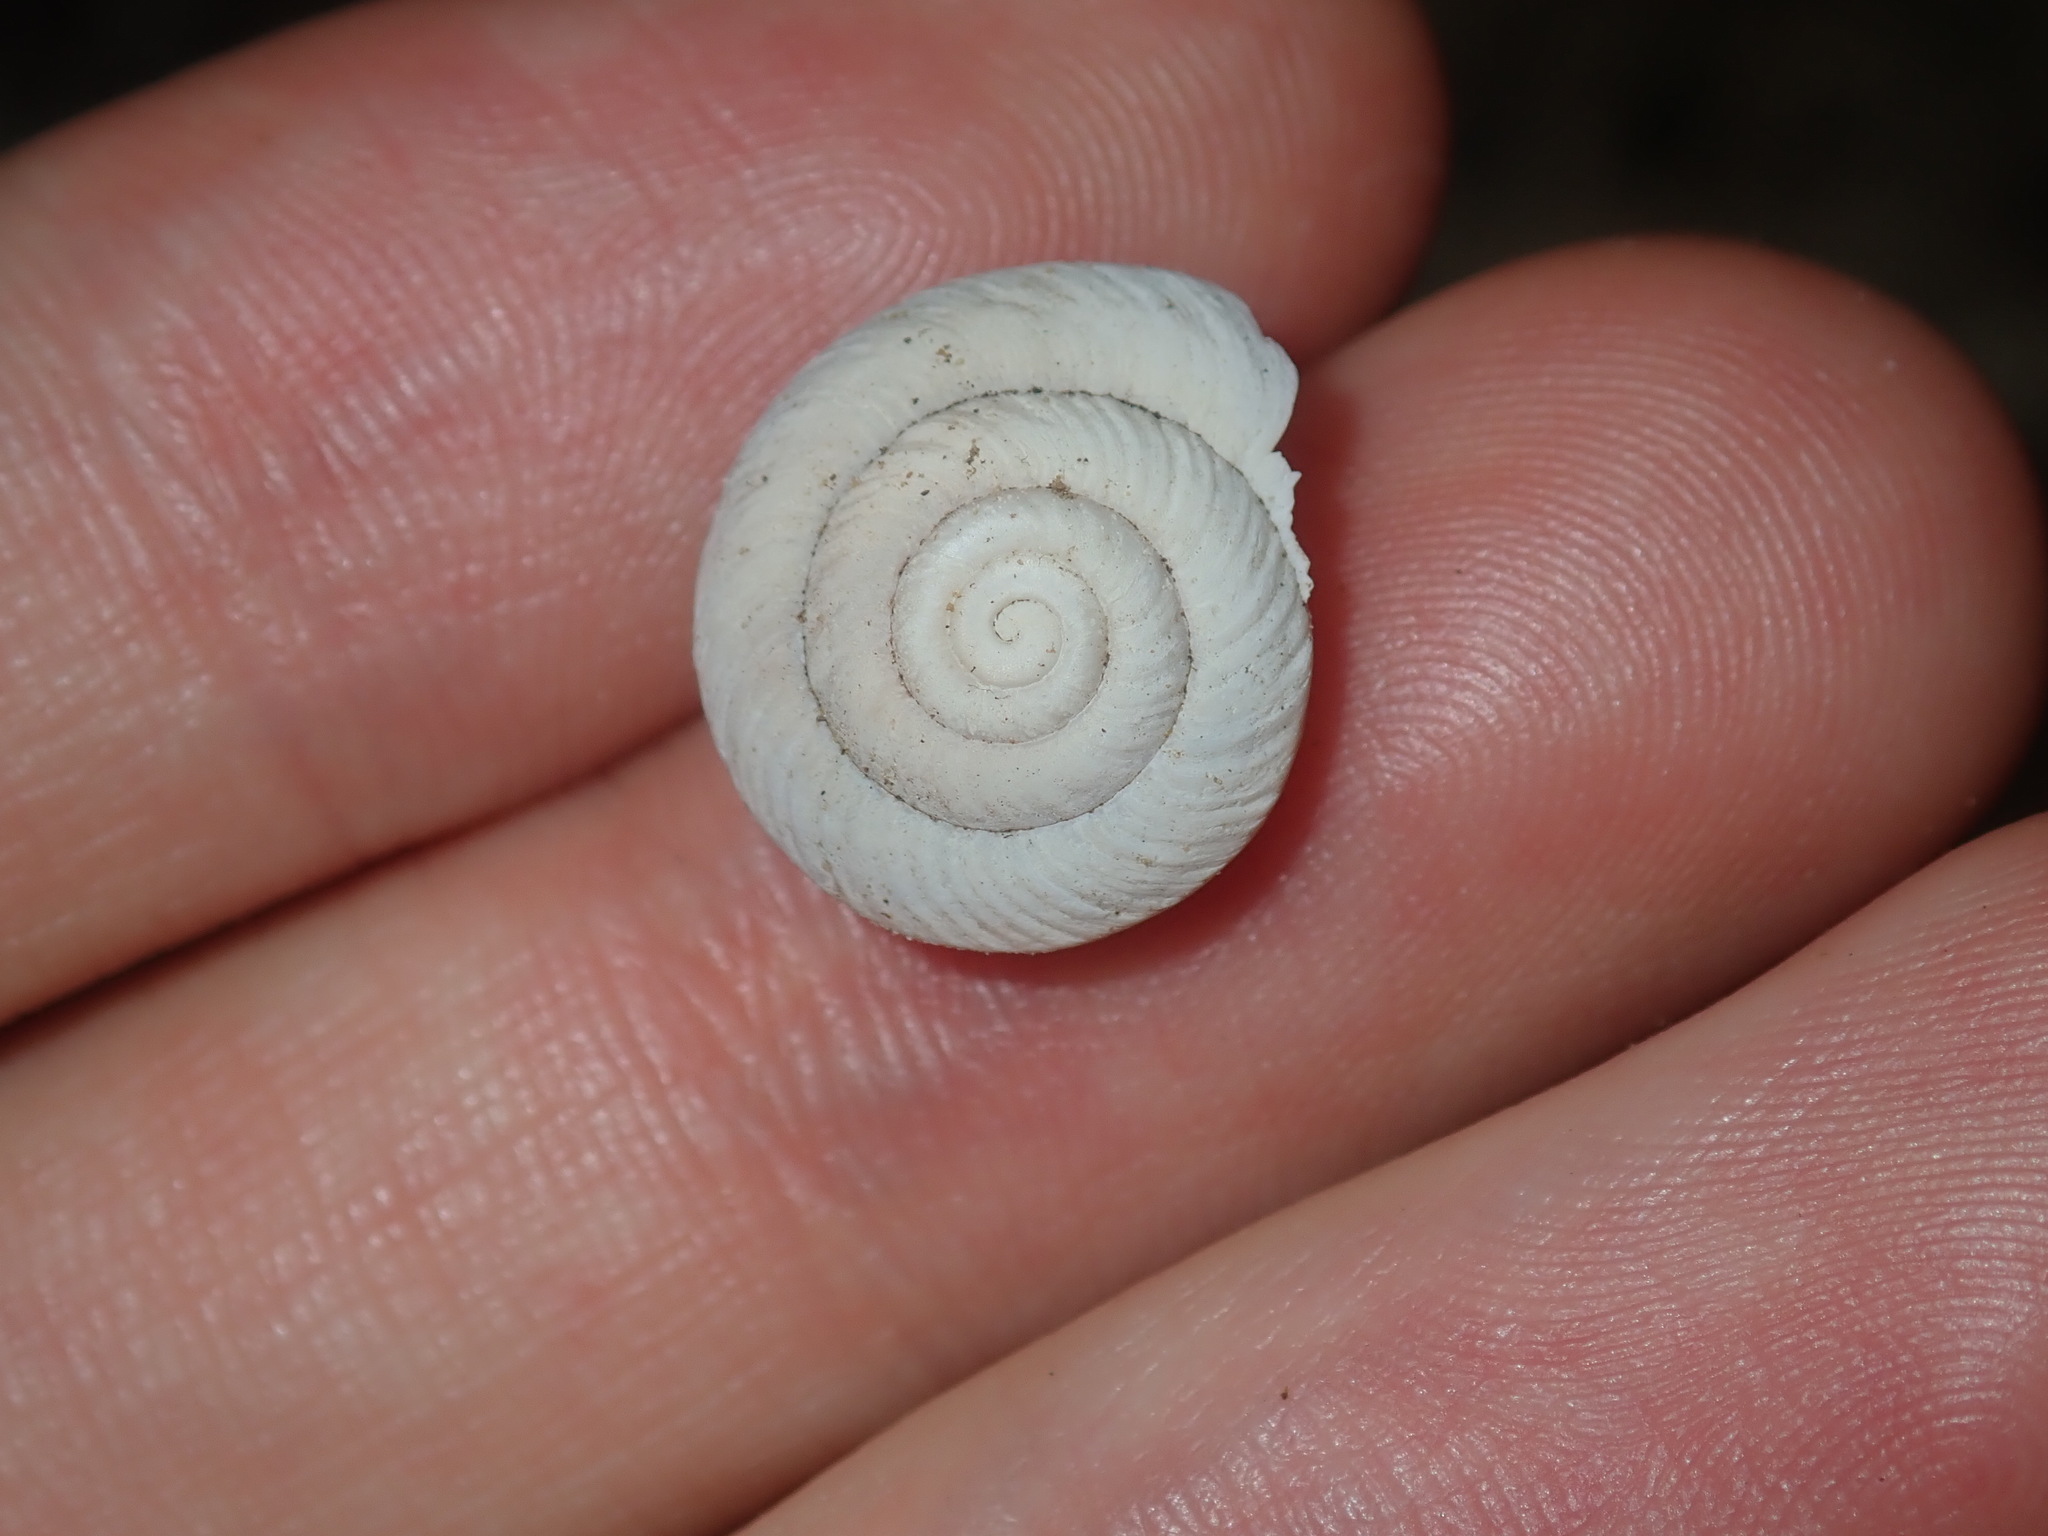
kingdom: Animalia
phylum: Mollusca
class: Gastropoda
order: Stylommatophora
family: Camaenidae
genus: Sauroconcha
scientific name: Sauroconcha sheai
